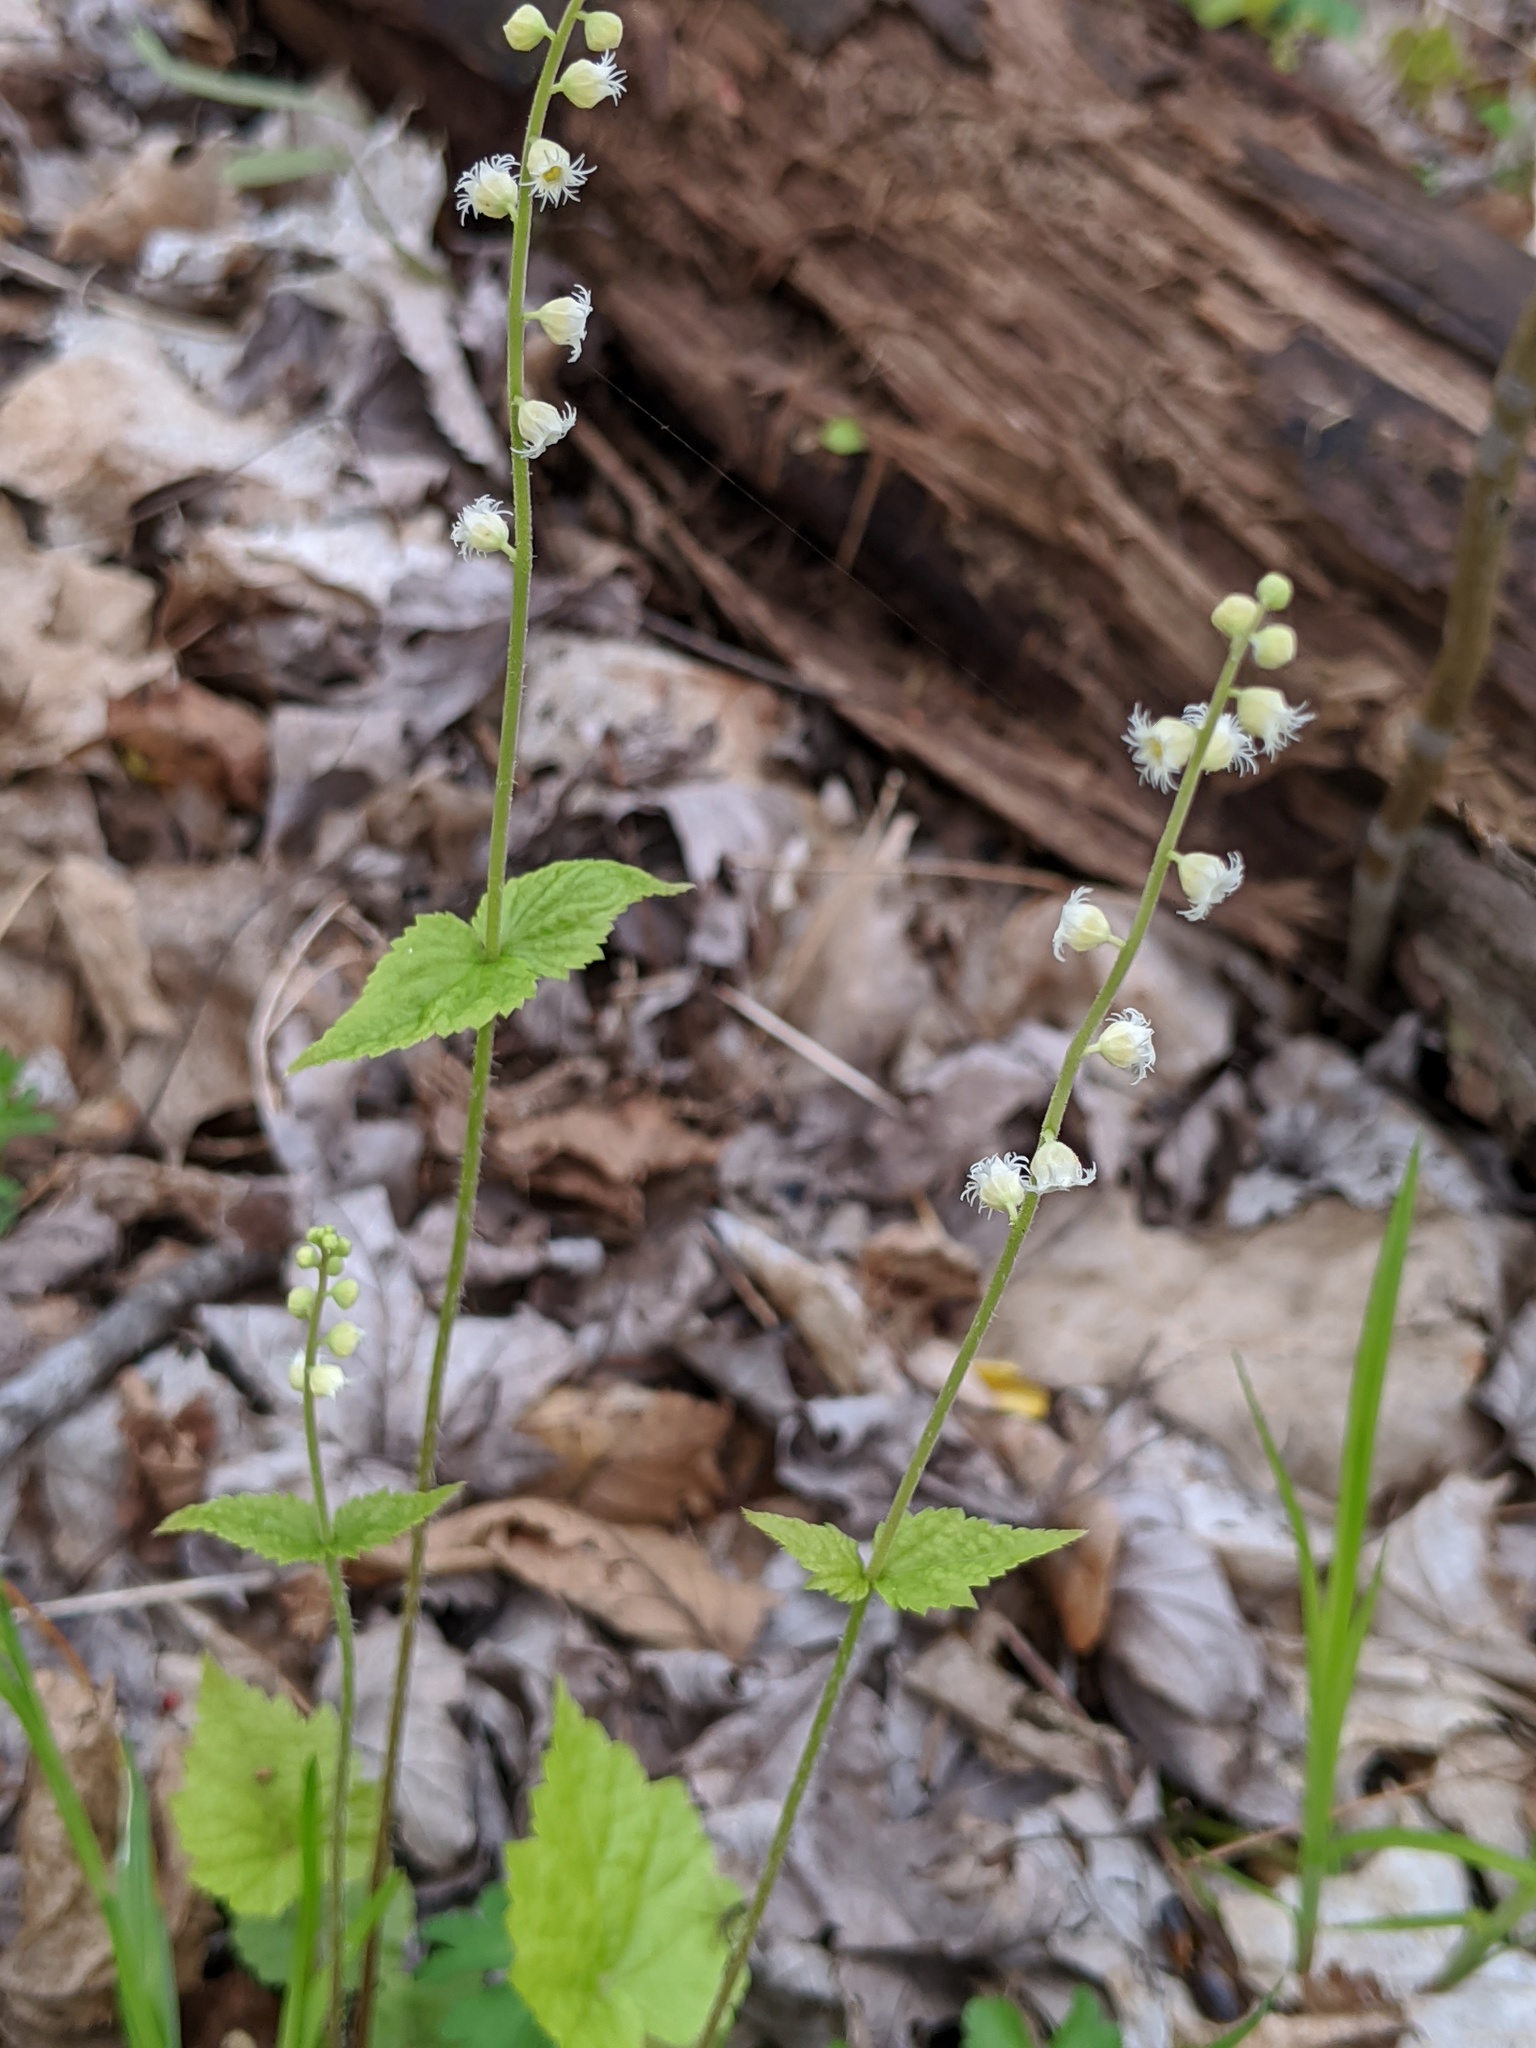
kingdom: Plantae
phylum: Tracheophyta
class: Magnoliopsida
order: Saxifragales
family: Saxifragaceae
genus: Mitella
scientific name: Mitella diphylla
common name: Coolwort
